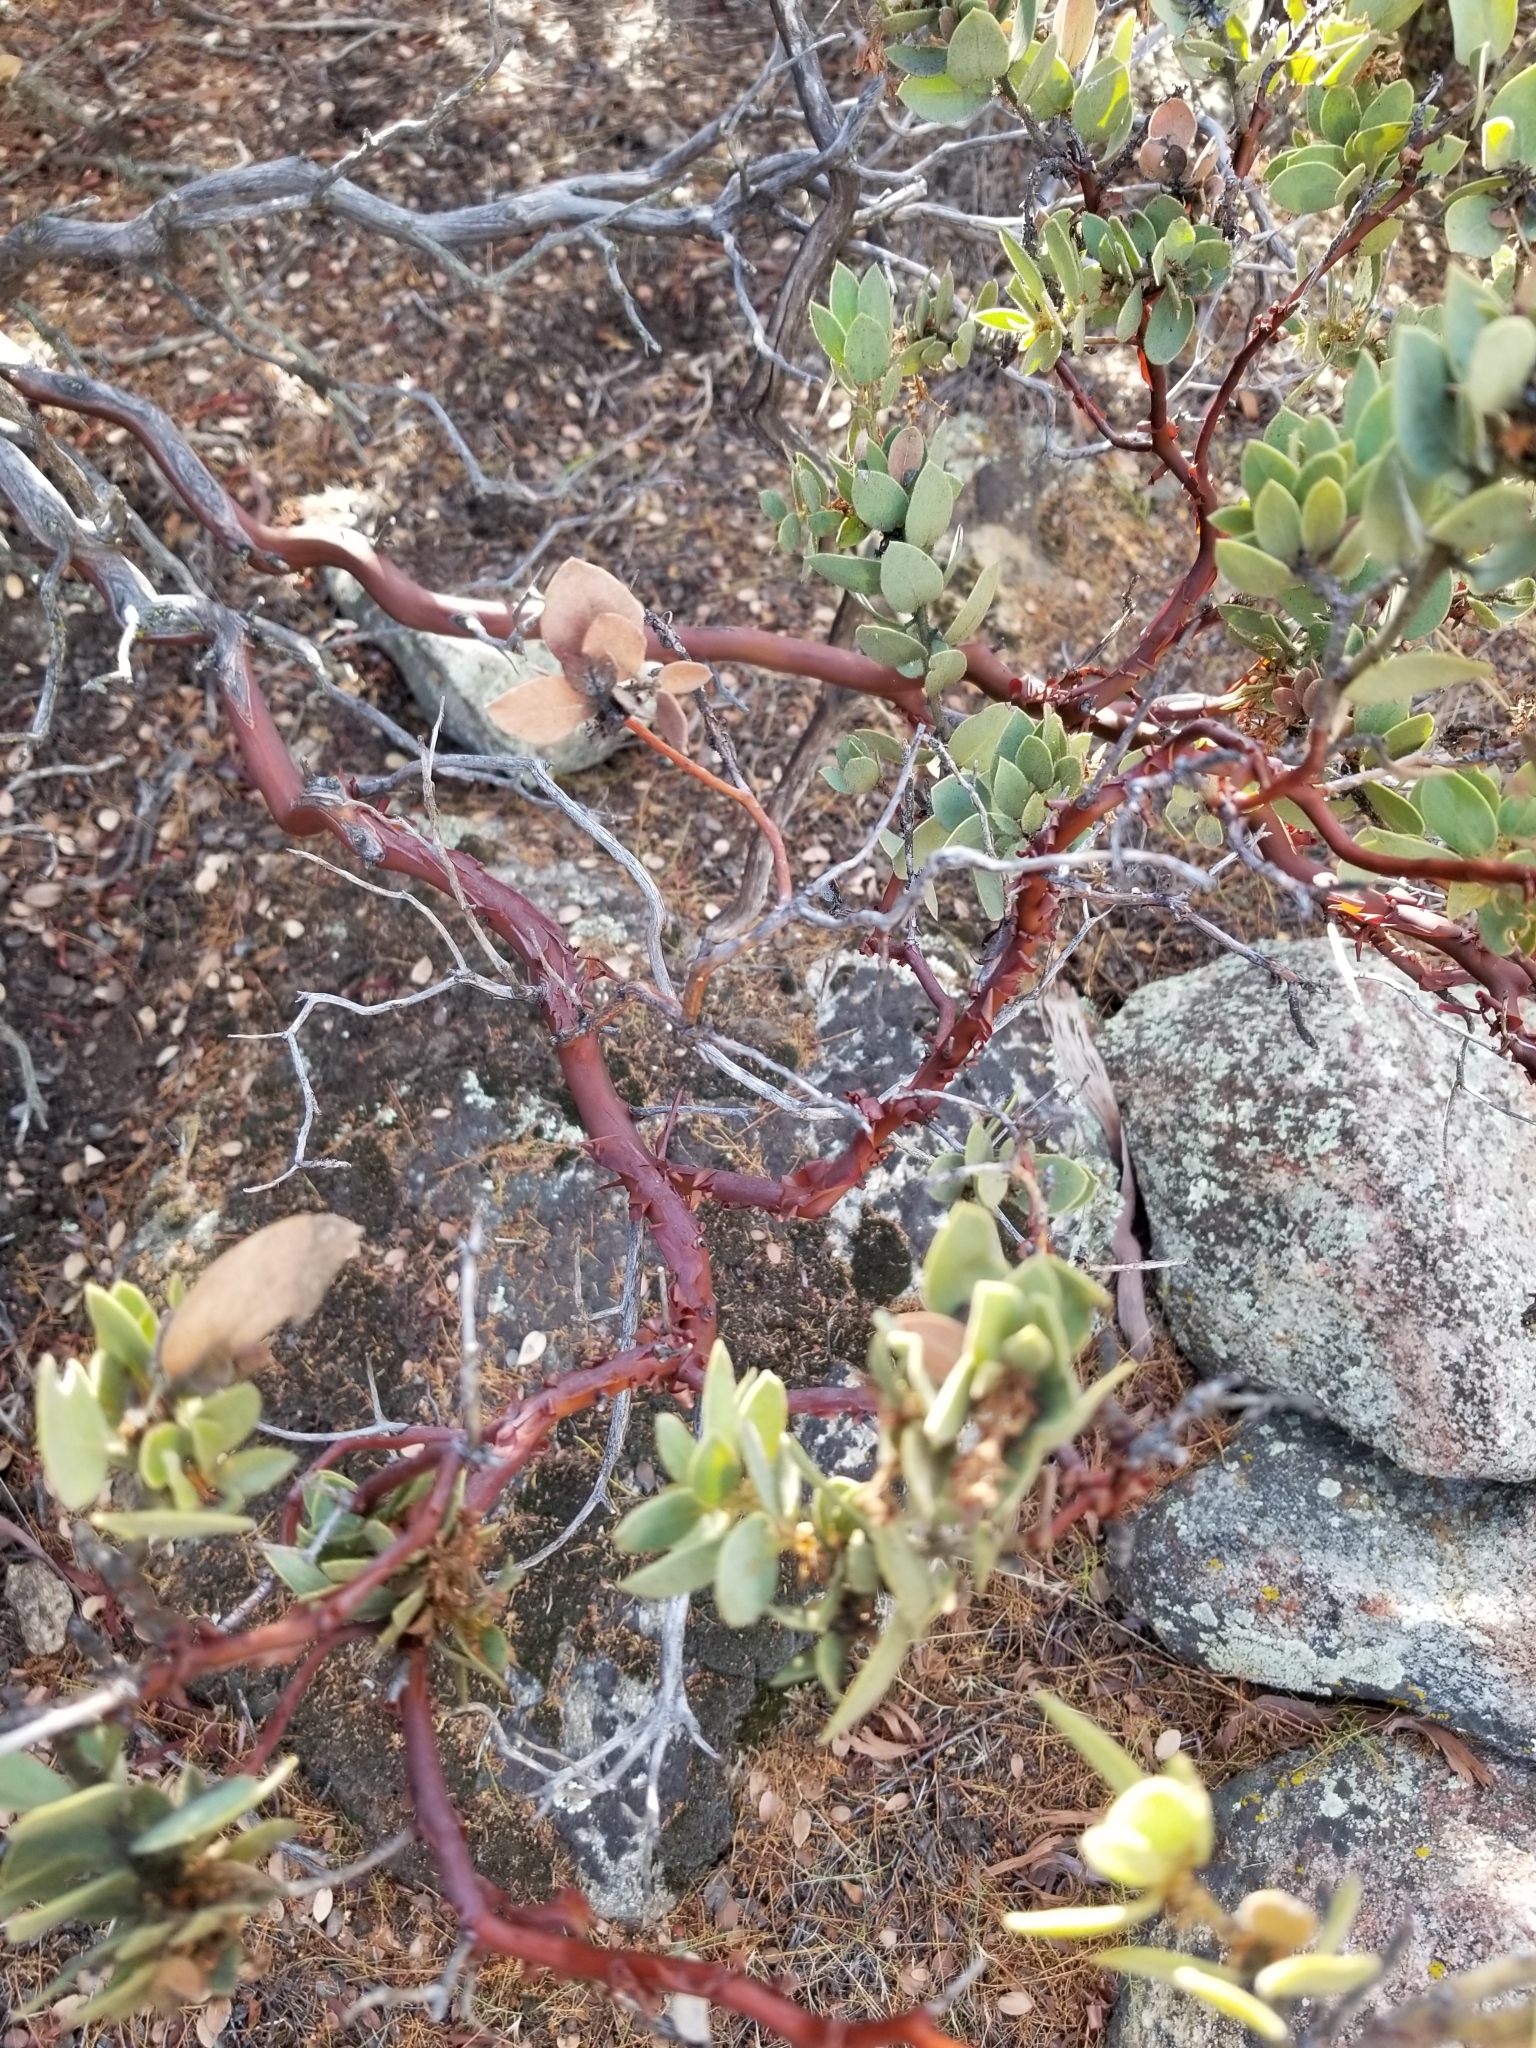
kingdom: Plantae
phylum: Tracheophyta
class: Magnoliopsida
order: Ericales
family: Ericaceae
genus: Arctostaphylos
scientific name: Arctostaphylos pringlei
